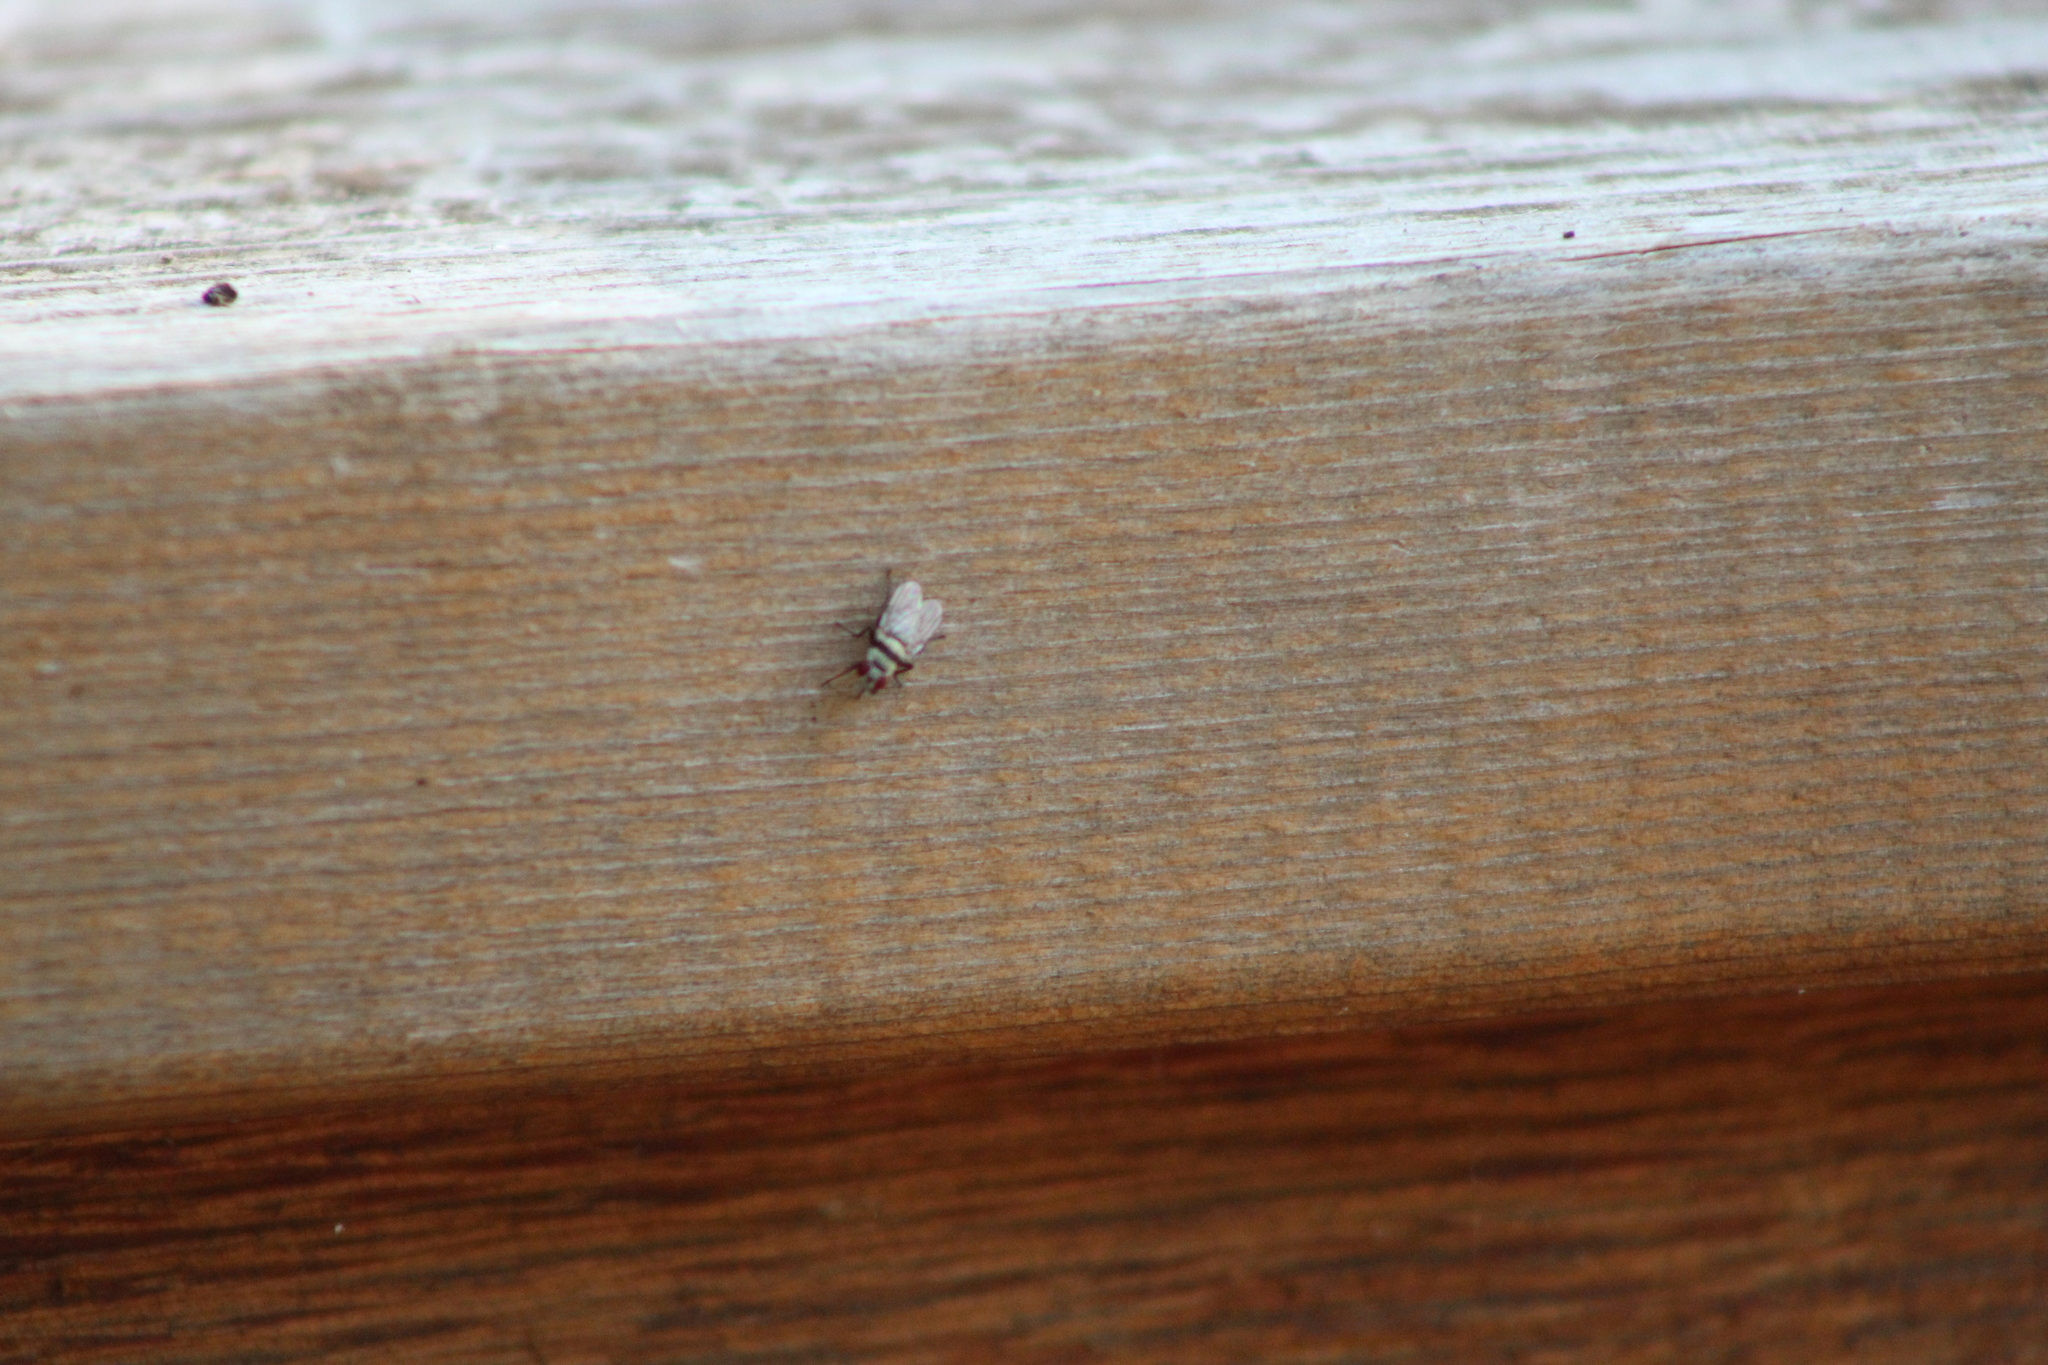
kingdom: Animalia
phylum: Arthropoda
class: Insecta
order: Diptera
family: Anthomyiidae
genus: Anthomyia
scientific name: Anthomyia illocata
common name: Fly
